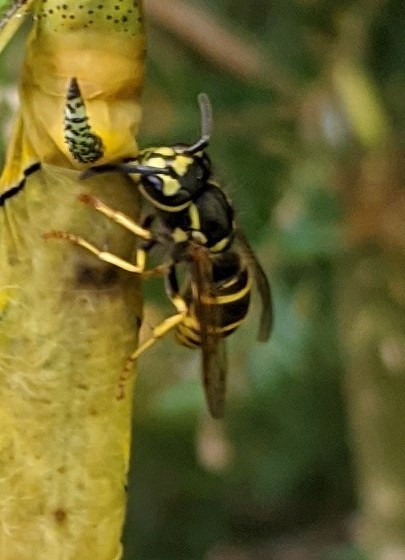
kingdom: Animalia
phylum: Arthropoda
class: Insecta
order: Hymenoptera
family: Vespidae
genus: Vespula
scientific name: Vespula maculifrons
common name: Eastern yellowjacket
